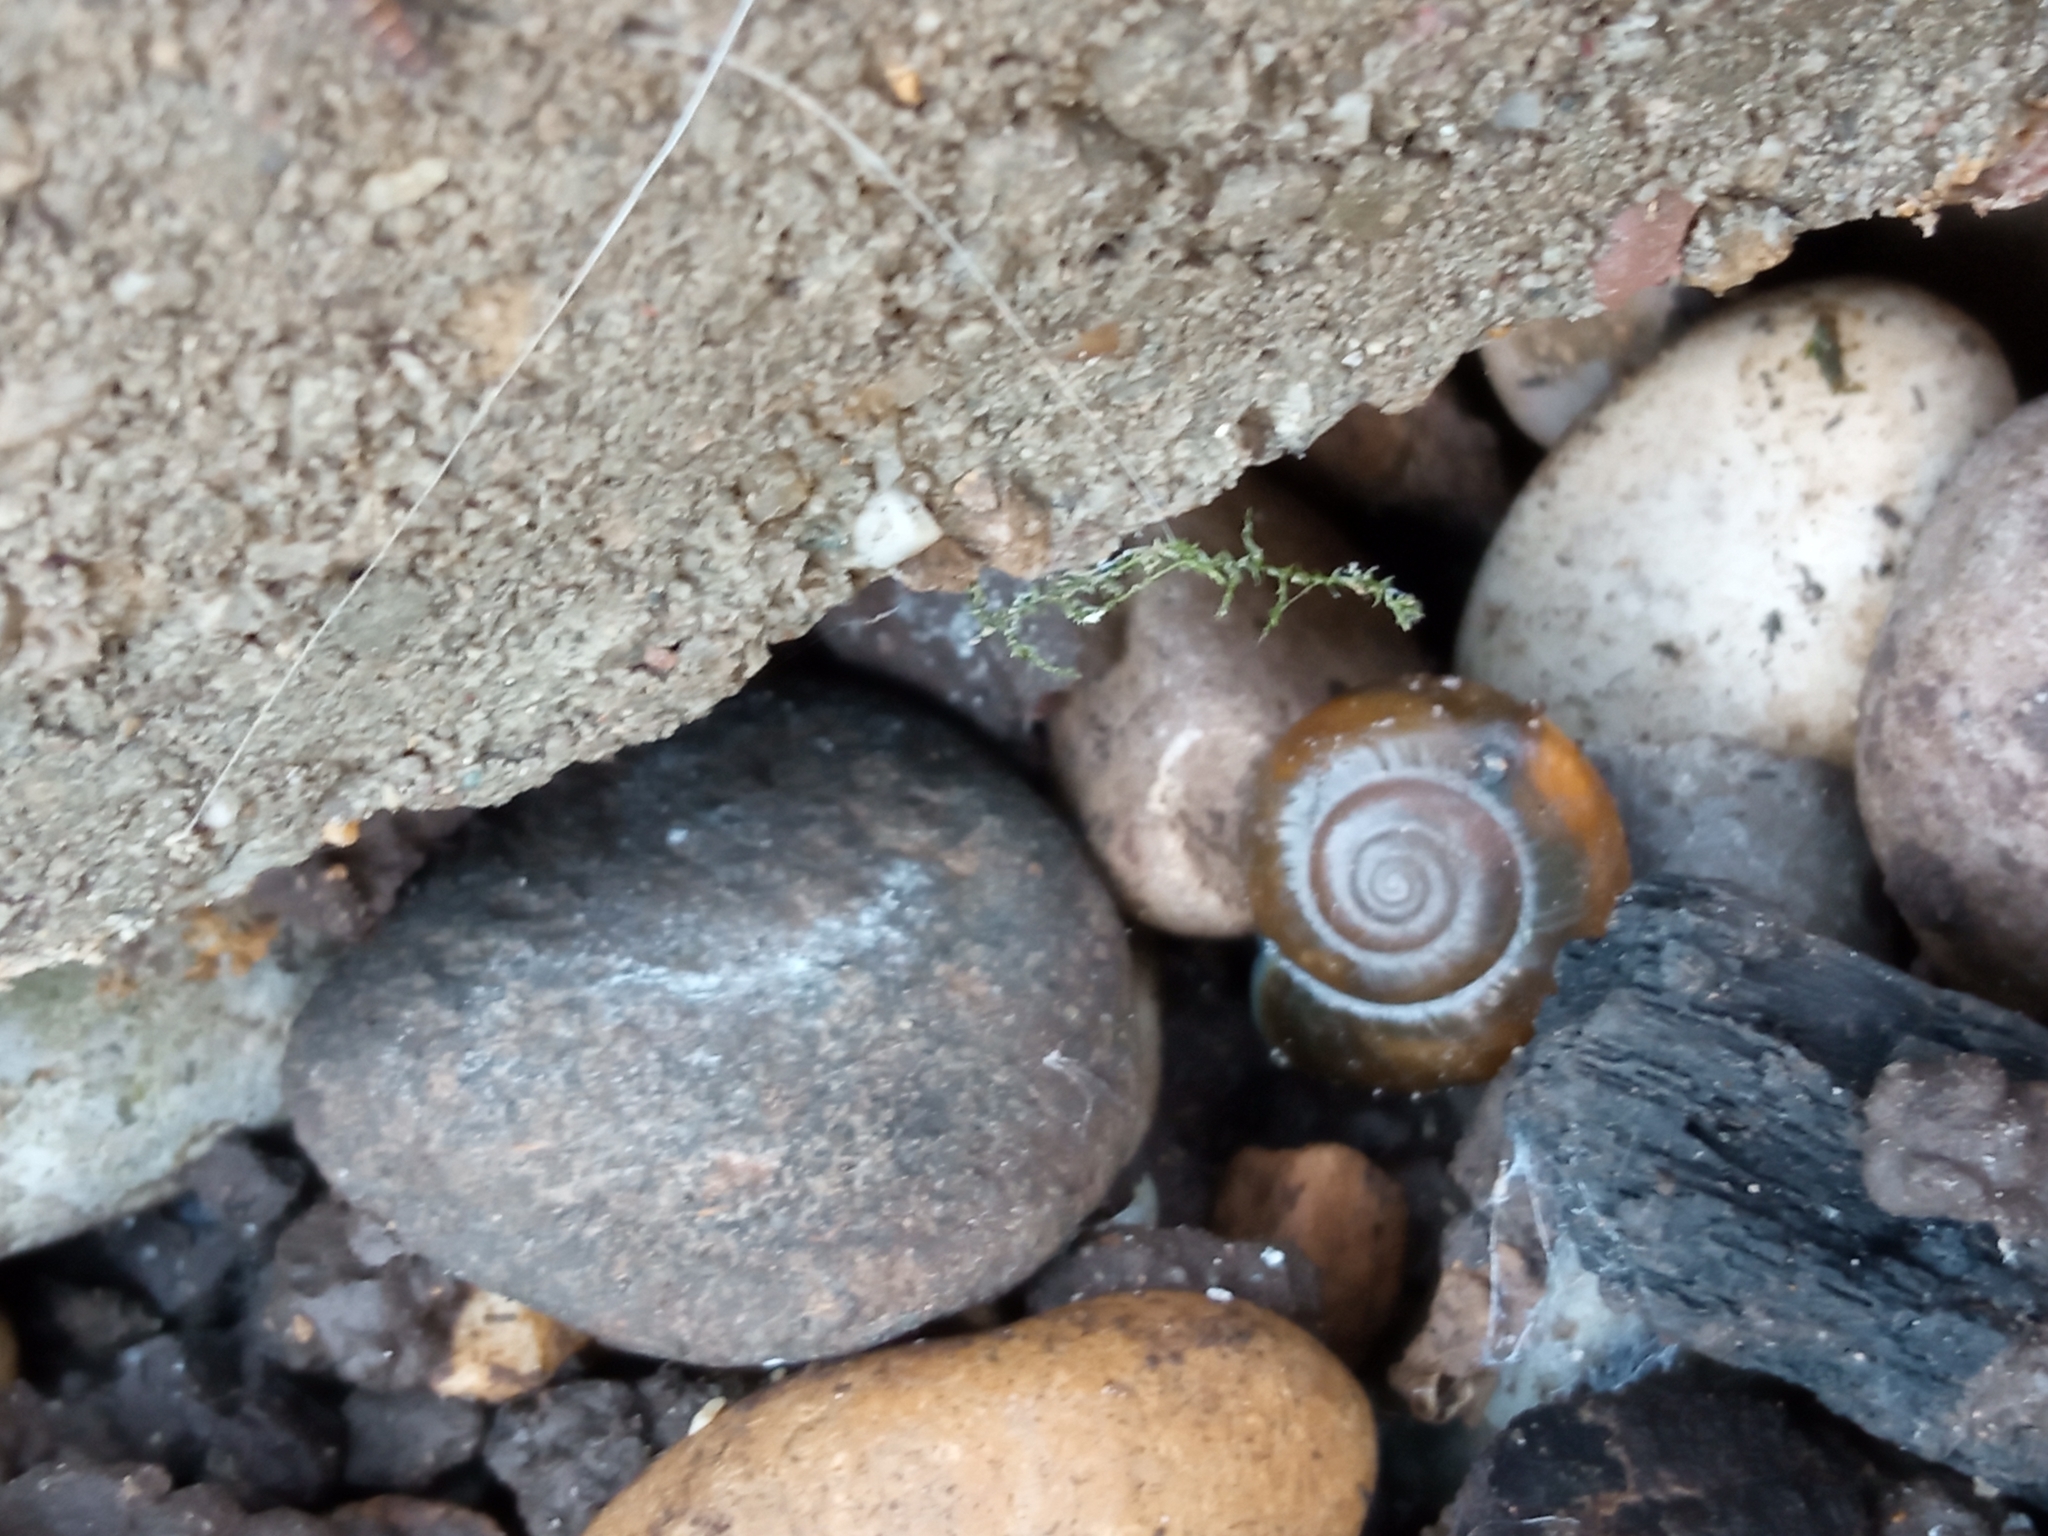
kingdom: Animalia
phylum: Mollusca
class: Gastropoda
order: Stylommatophora
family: Oxychilidae
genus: Oxychilus
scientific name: Oxychilus draparnaudi
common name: Draparnaud's glass snail
